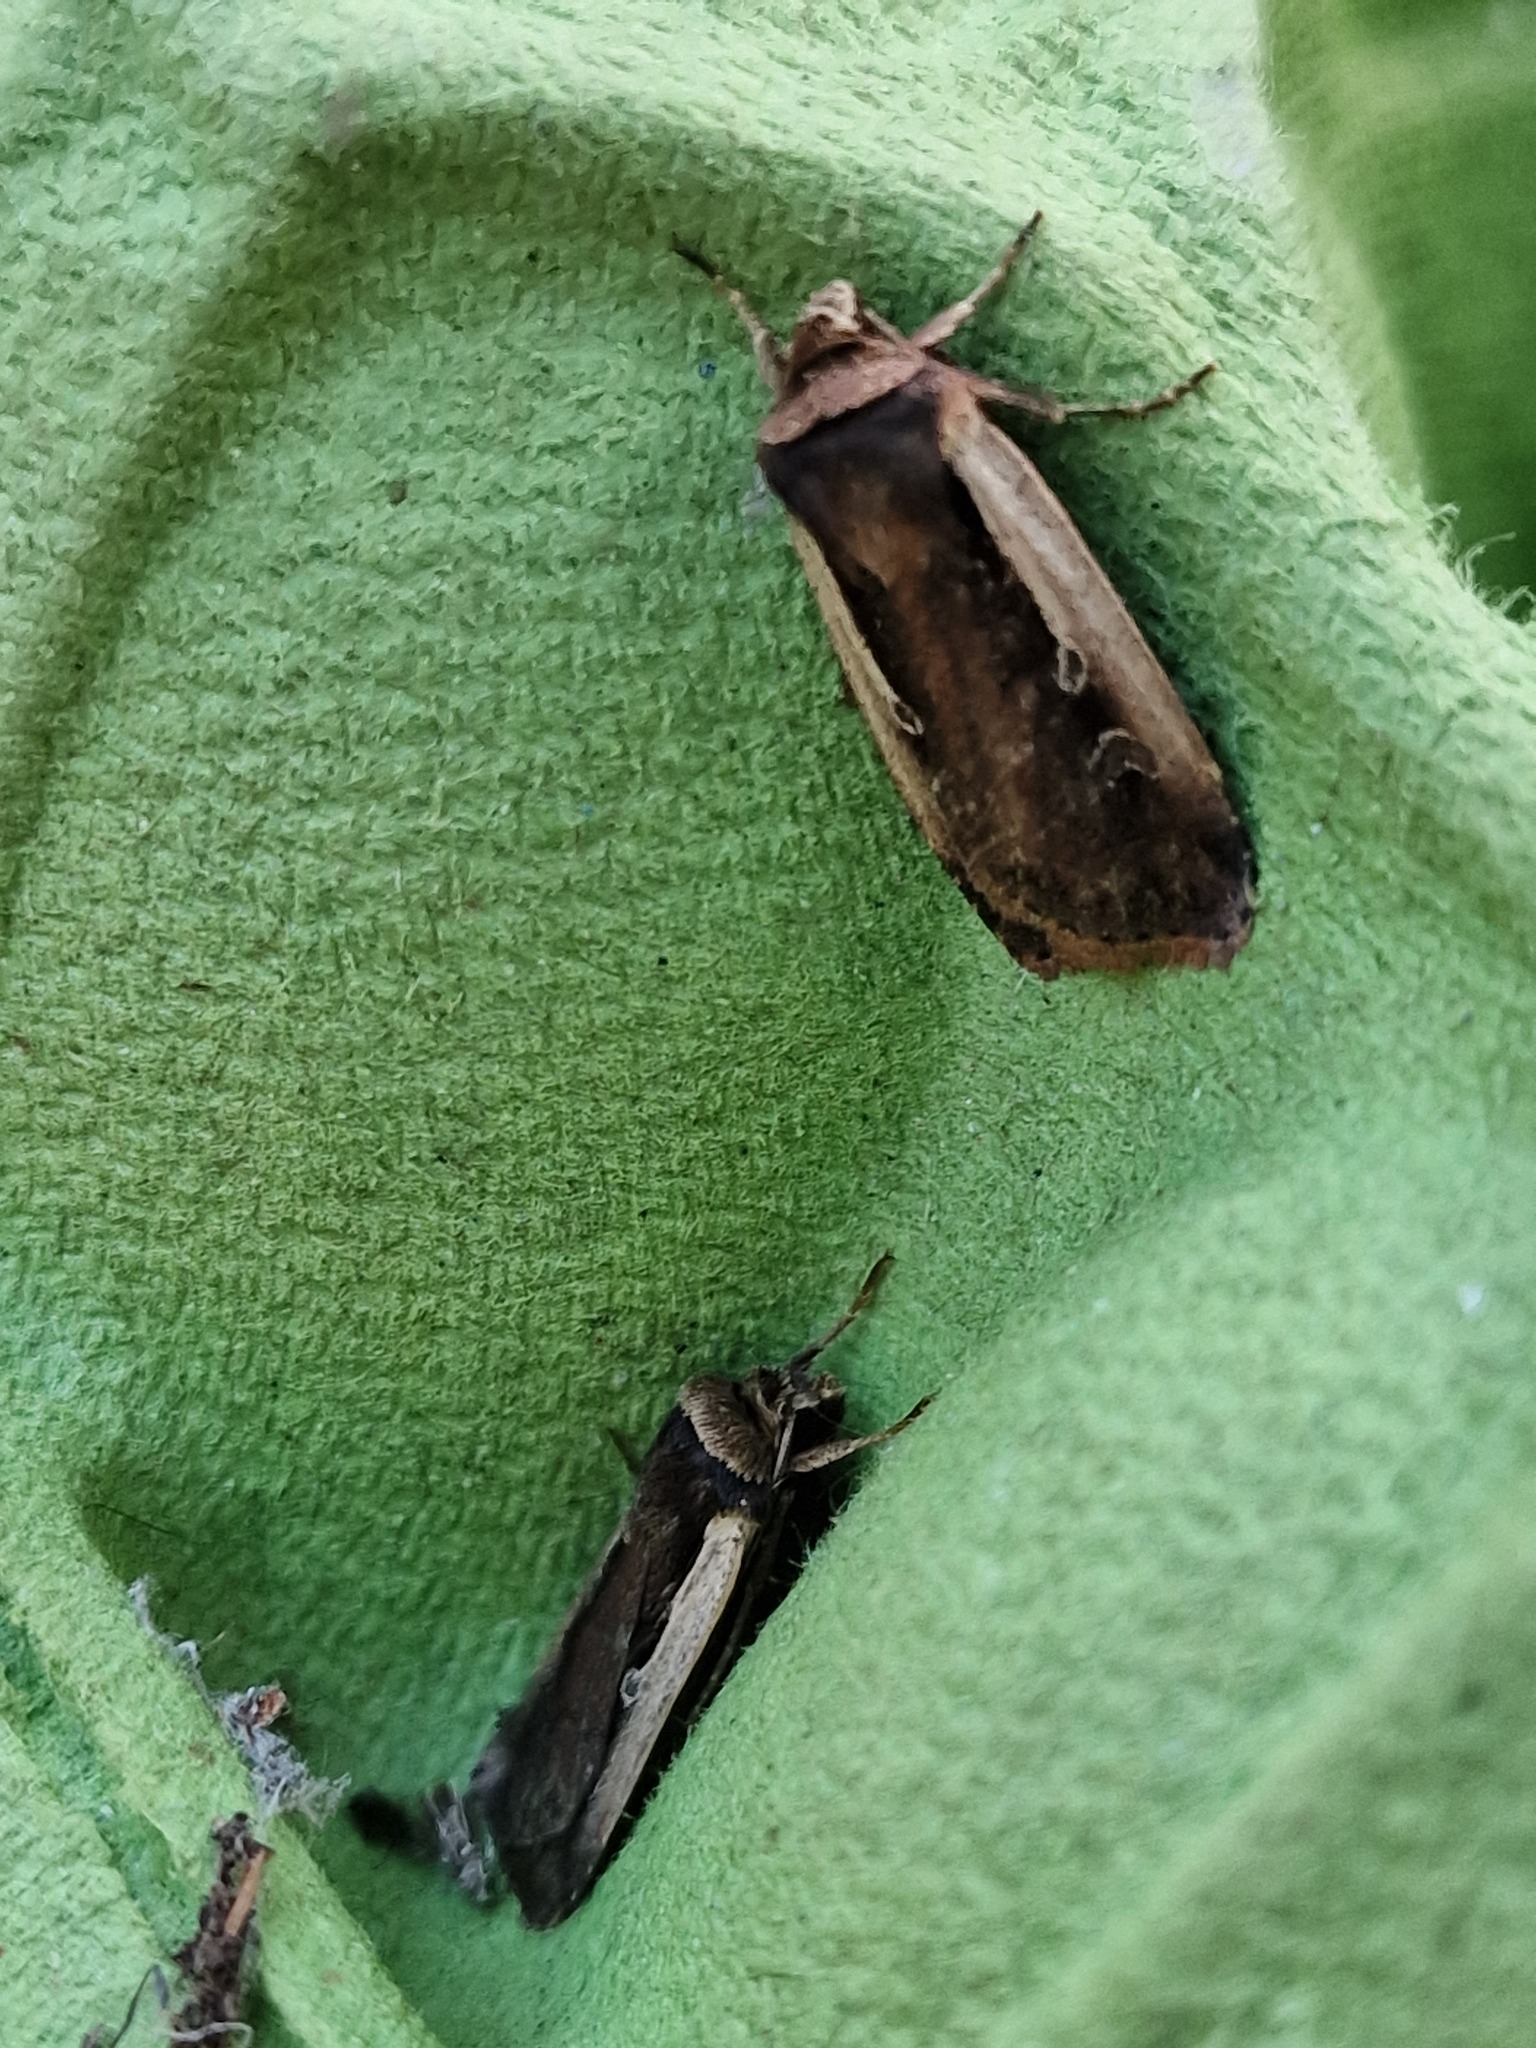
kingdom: Animalia
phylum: Arthropoda
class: Insecta
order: Lepidoptera
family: Noctuidae
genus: Ochropleura
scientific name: Ochropleura plecta
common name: Flame shoulder
